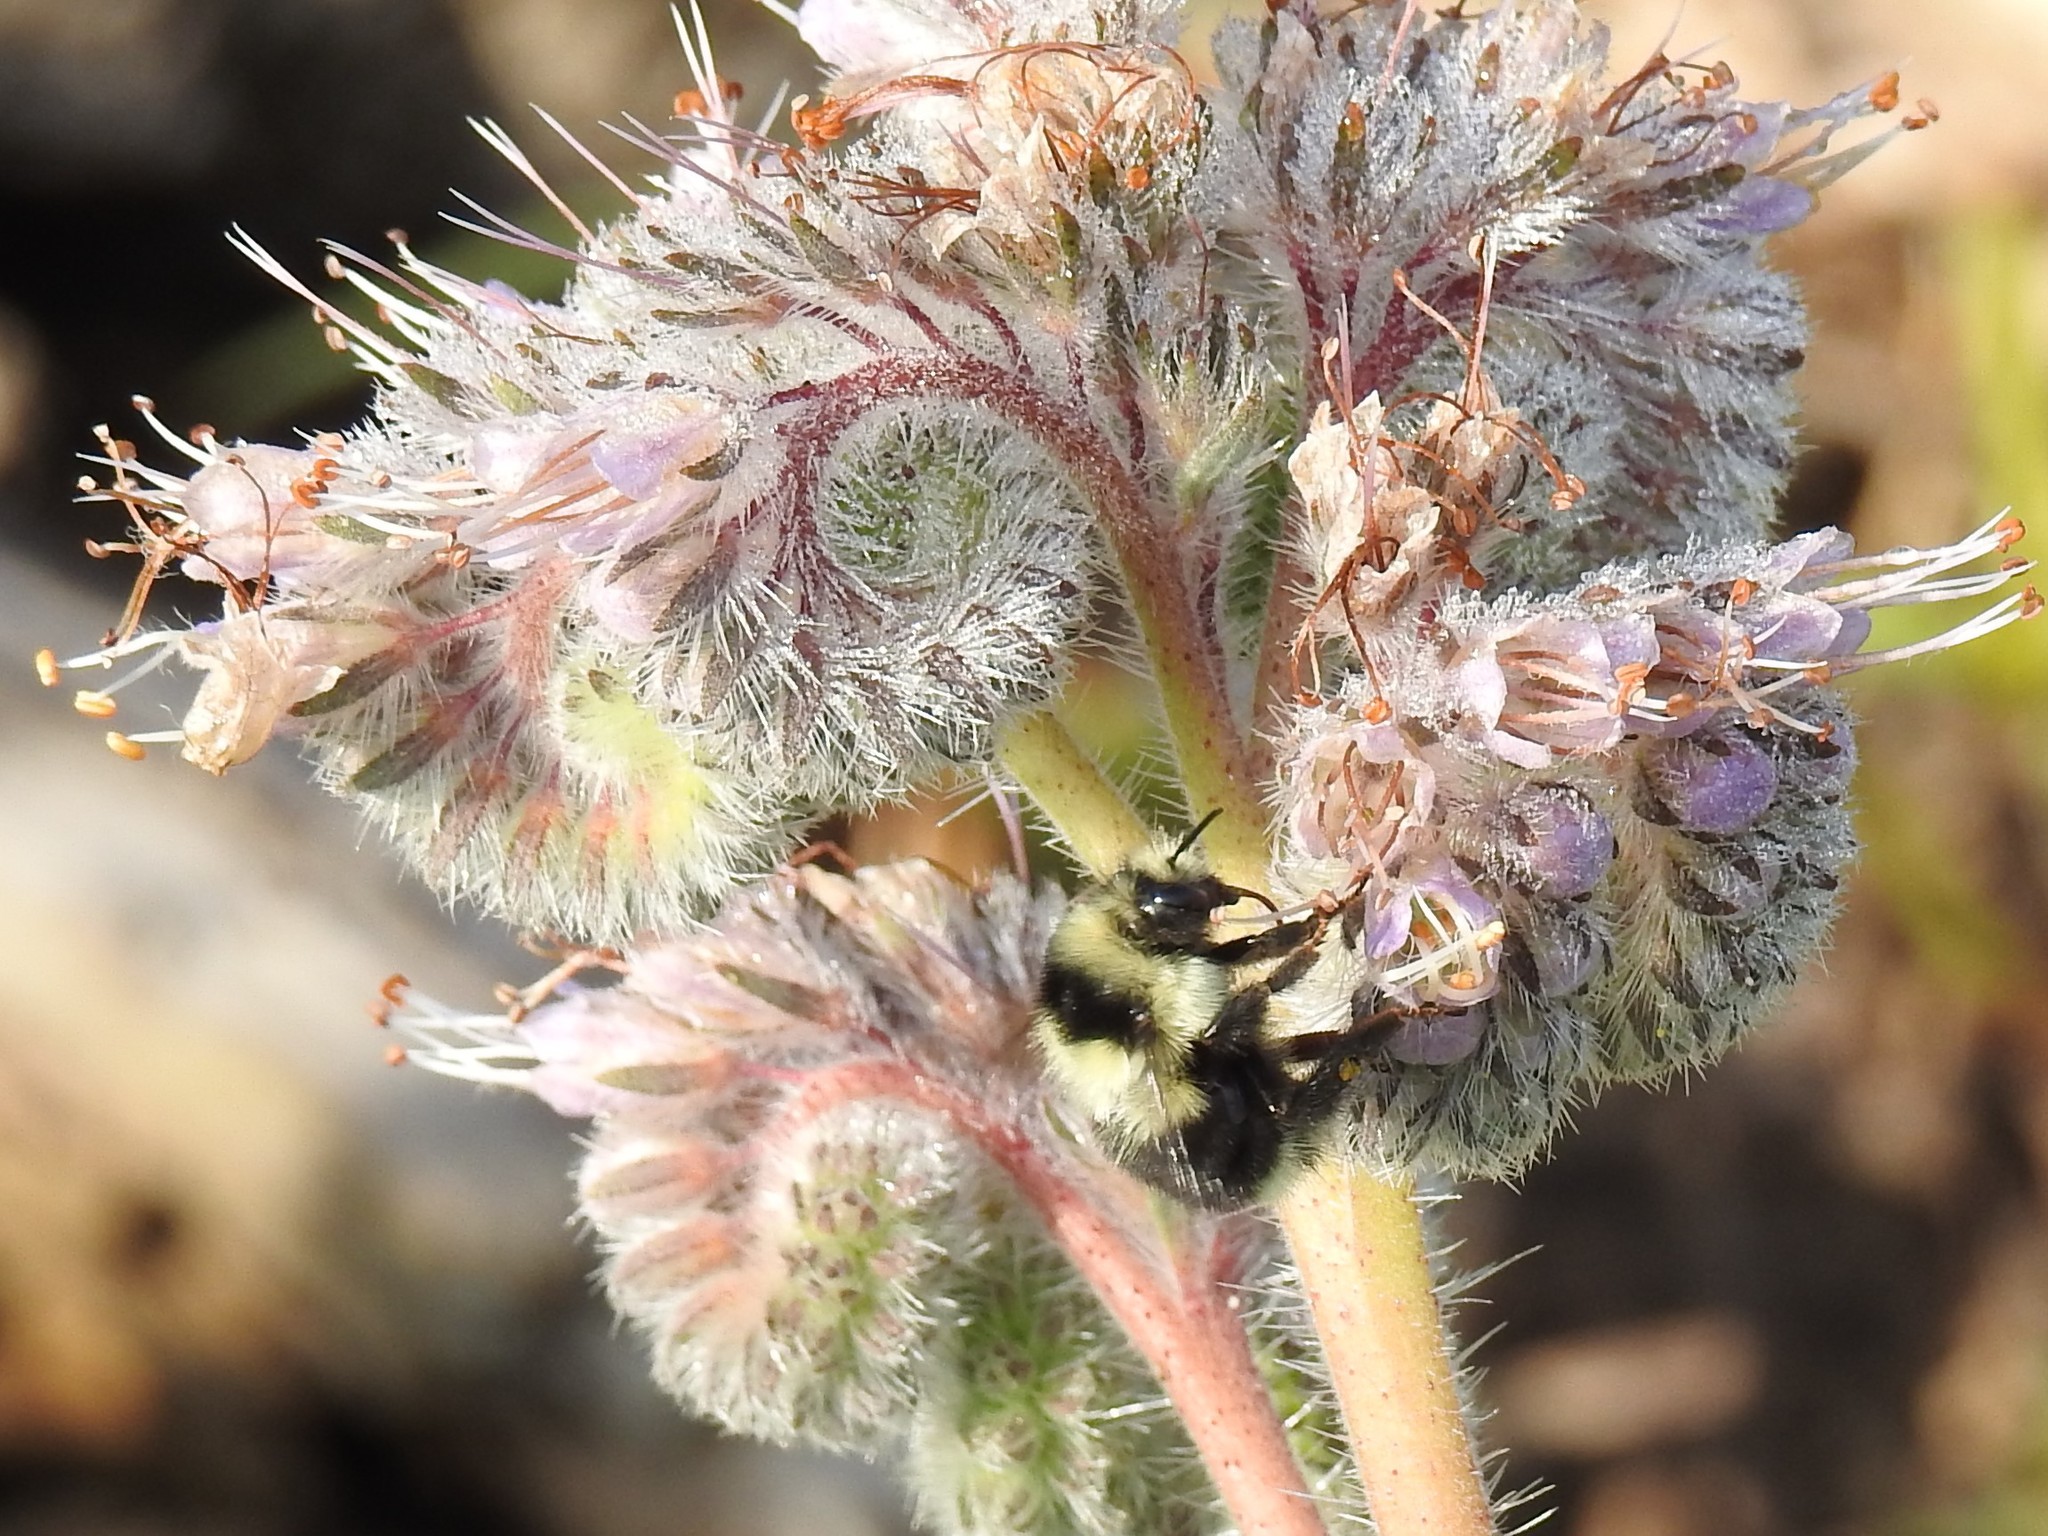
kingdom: Animalia
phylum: Arthropoda
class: Insecta
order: Hymenoptera
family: Apidae
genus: Bombus
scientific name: Bombus melanopygus
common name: Black tail bumble bee
